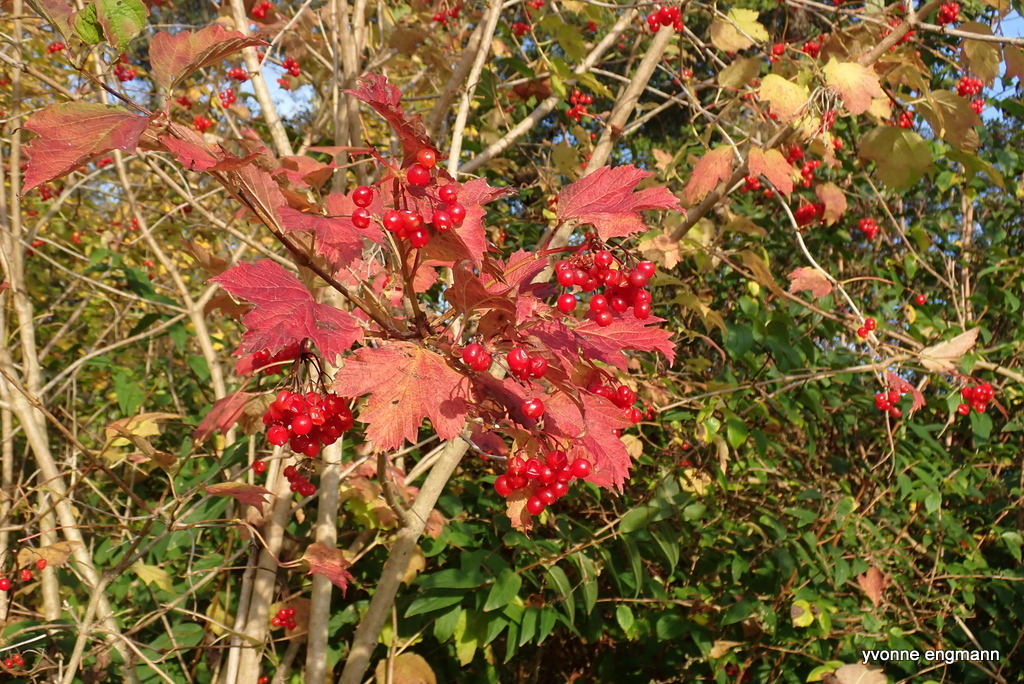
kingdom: Plantae
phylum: Tracheophyta
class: Magnoliopsida
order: Dipsacales
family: Viburnaceae
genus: Viburnum
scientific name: Viburnum opulus
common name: Guelder-rose
